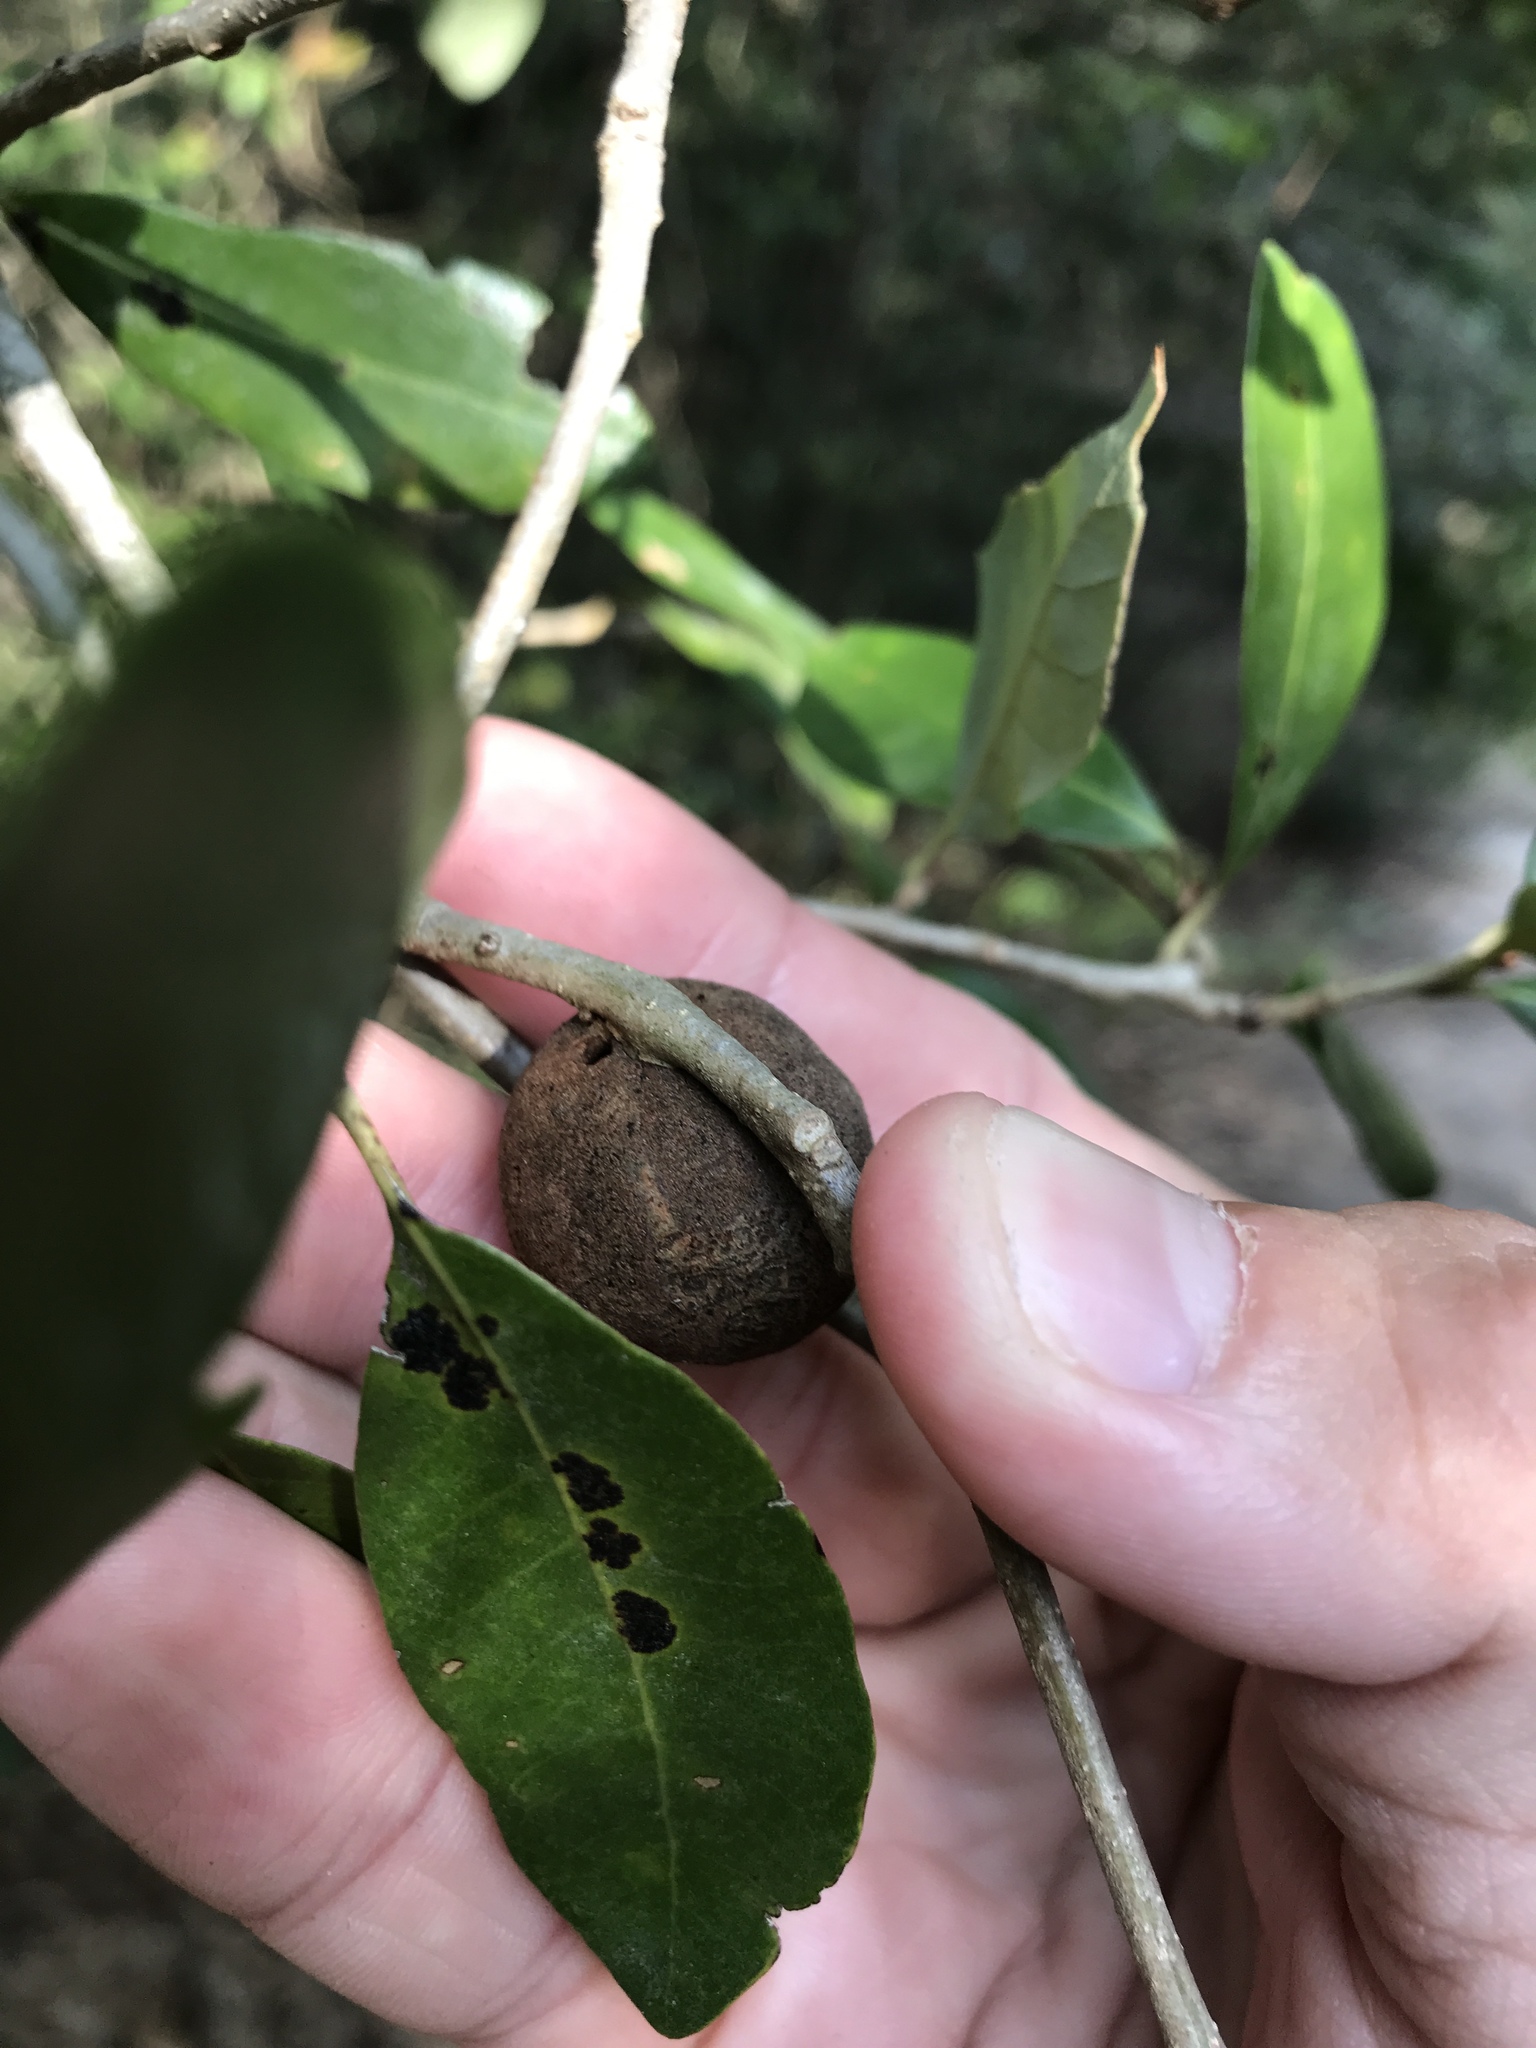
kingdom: Animalia
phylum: Arthropoda
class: Insecta
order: Hymenoptera
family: Cynipidae
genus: Disholcaspis
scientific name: Disholcaspis
